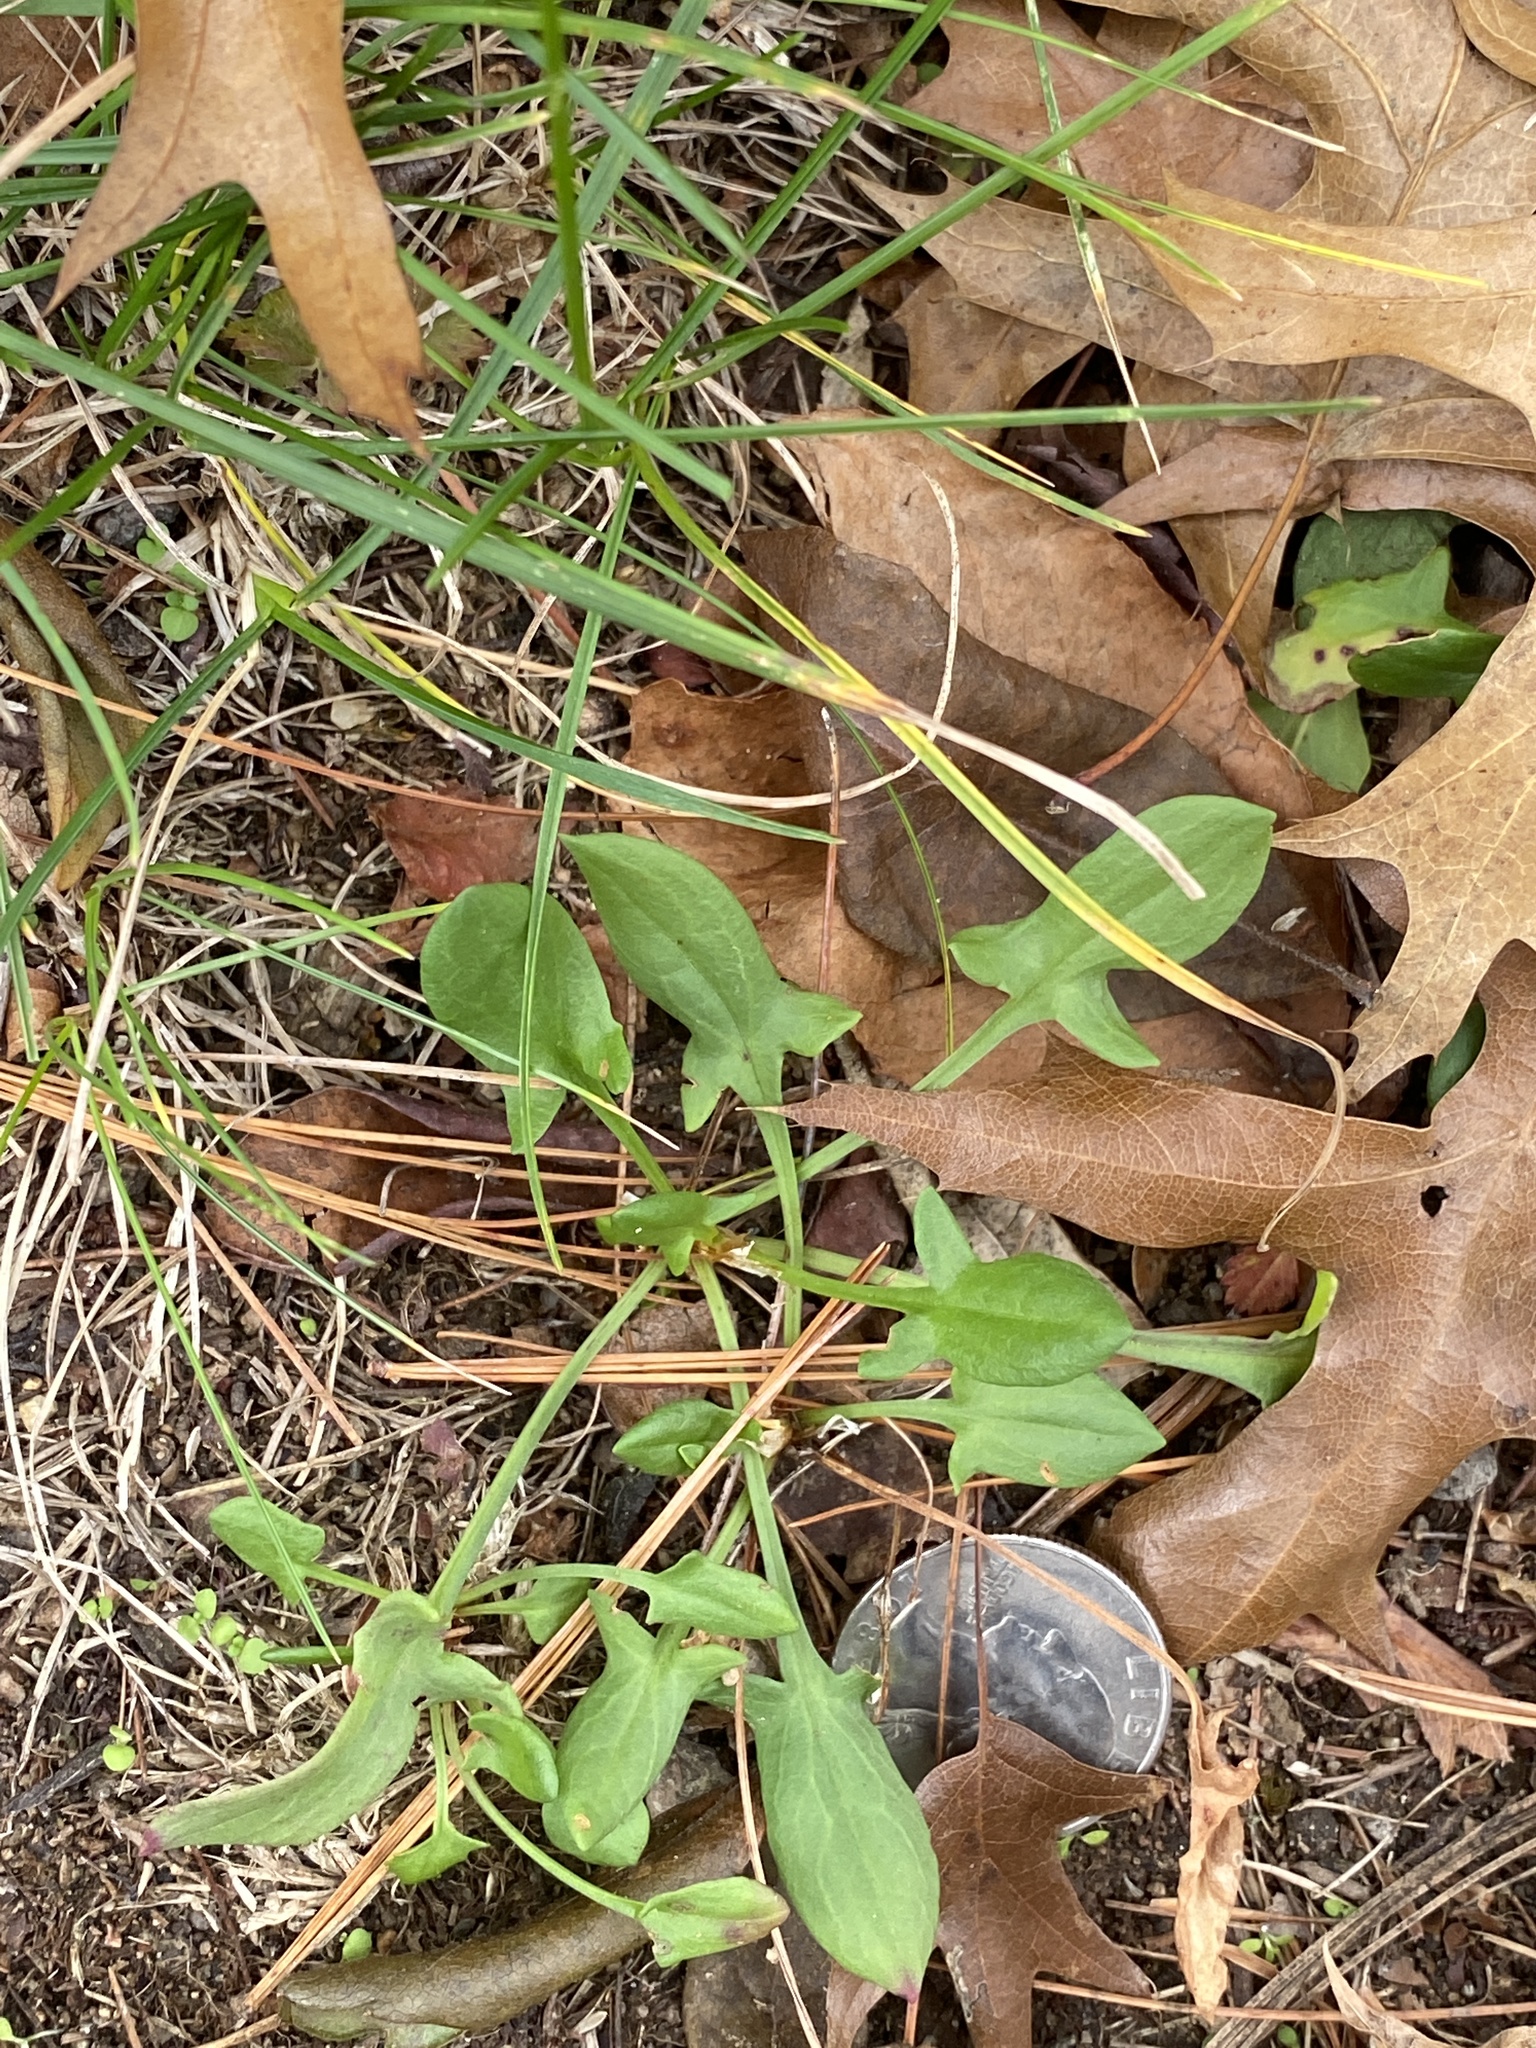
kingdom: Plantae
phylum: Tracheophyta
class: Magnoliopsida
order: Caryophyllales
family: Polygonaceae
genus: Rumex
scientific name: Rumex acetosella
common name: Common sheep sorrel
